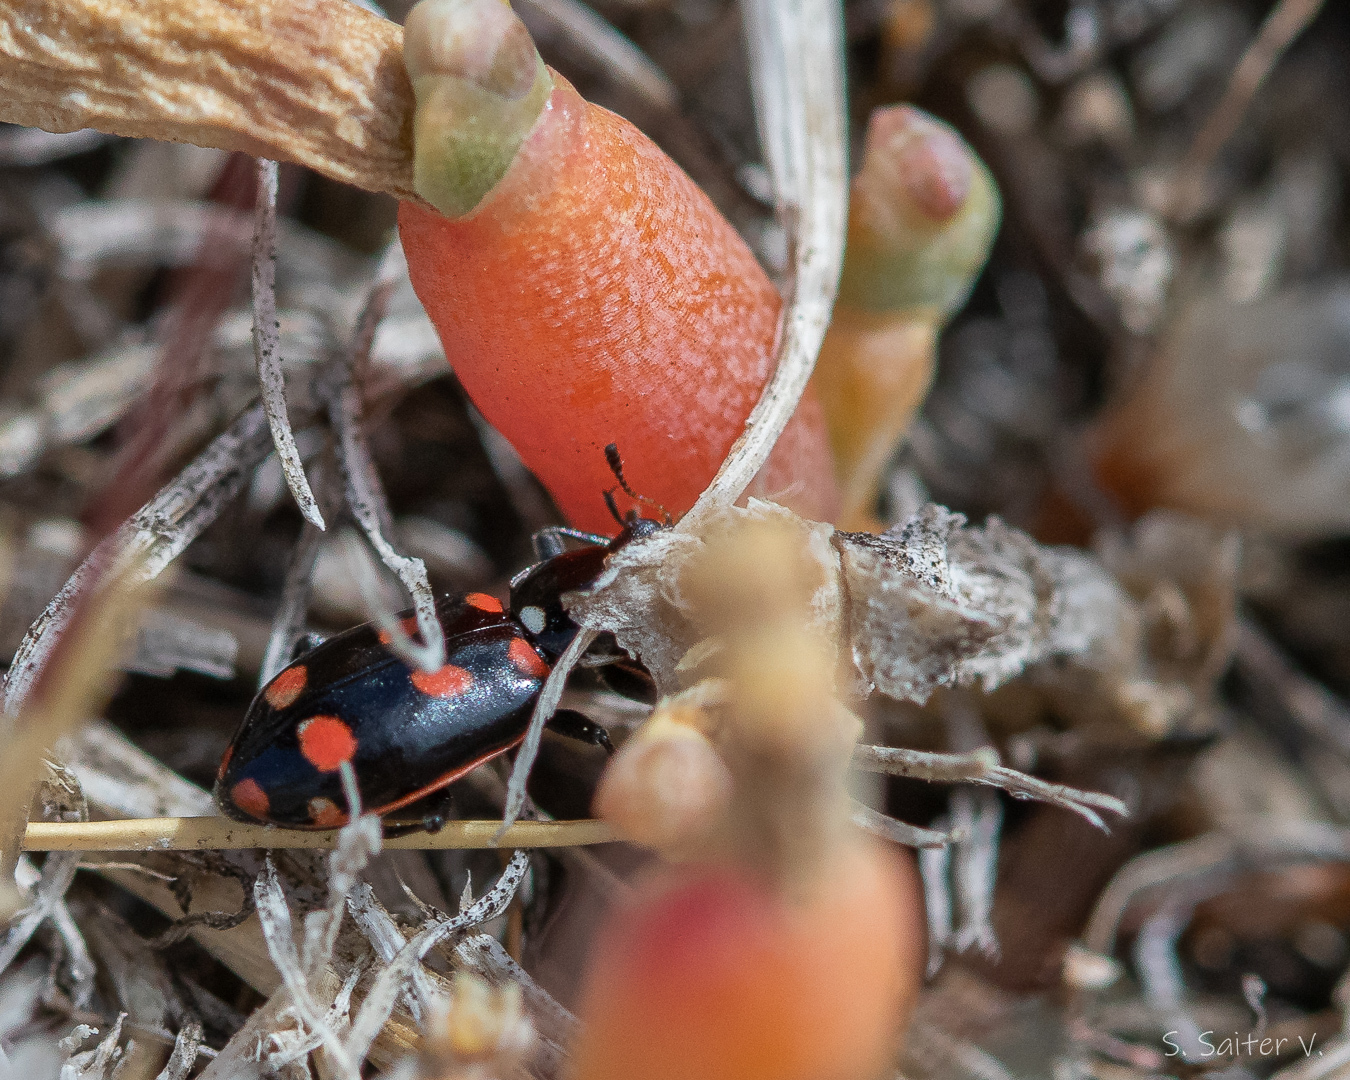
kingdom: Animalia
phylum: Arthropoda
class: Insecta
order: Coleoptera
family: Coccinellidae
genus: Eriopis
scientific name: Eriopis magellanica
